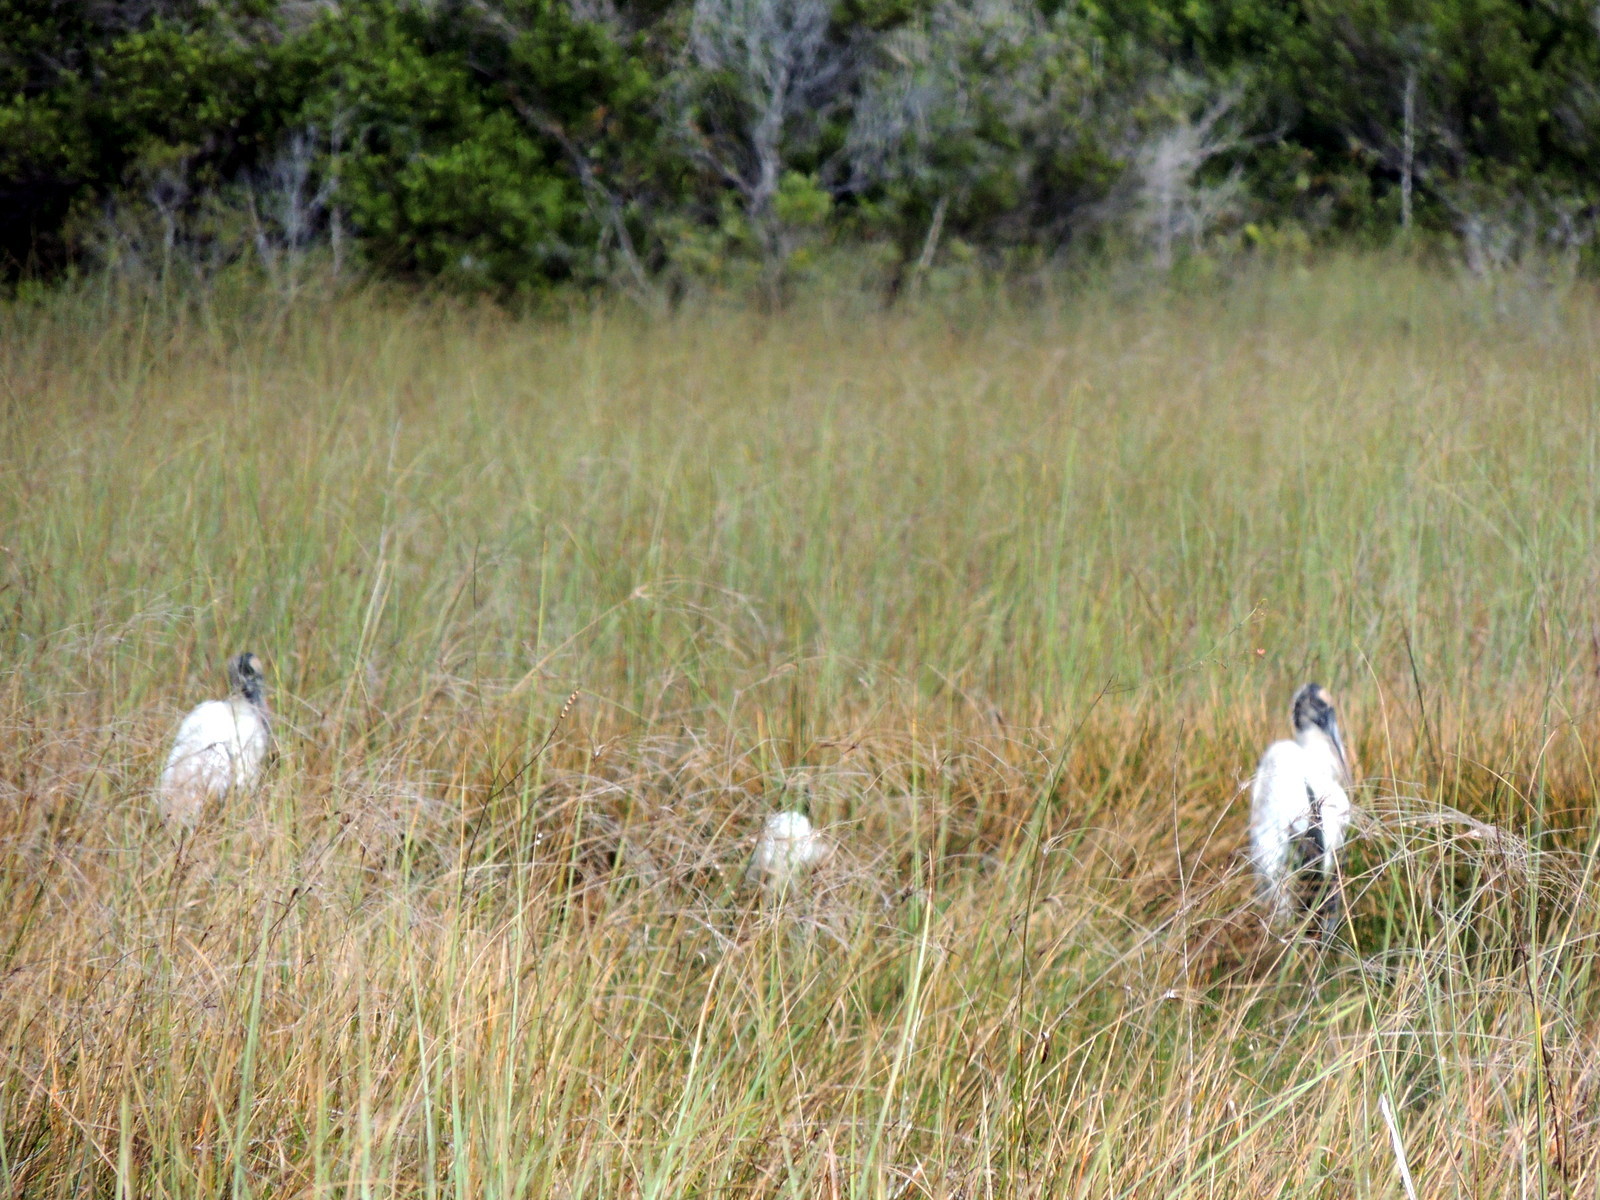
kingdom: Animalia
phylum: Chordata
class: Aves
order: Ciconiiformes
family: Ciconiidae
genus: Mycteria
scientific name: Mycteria americana
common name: Wood stork
